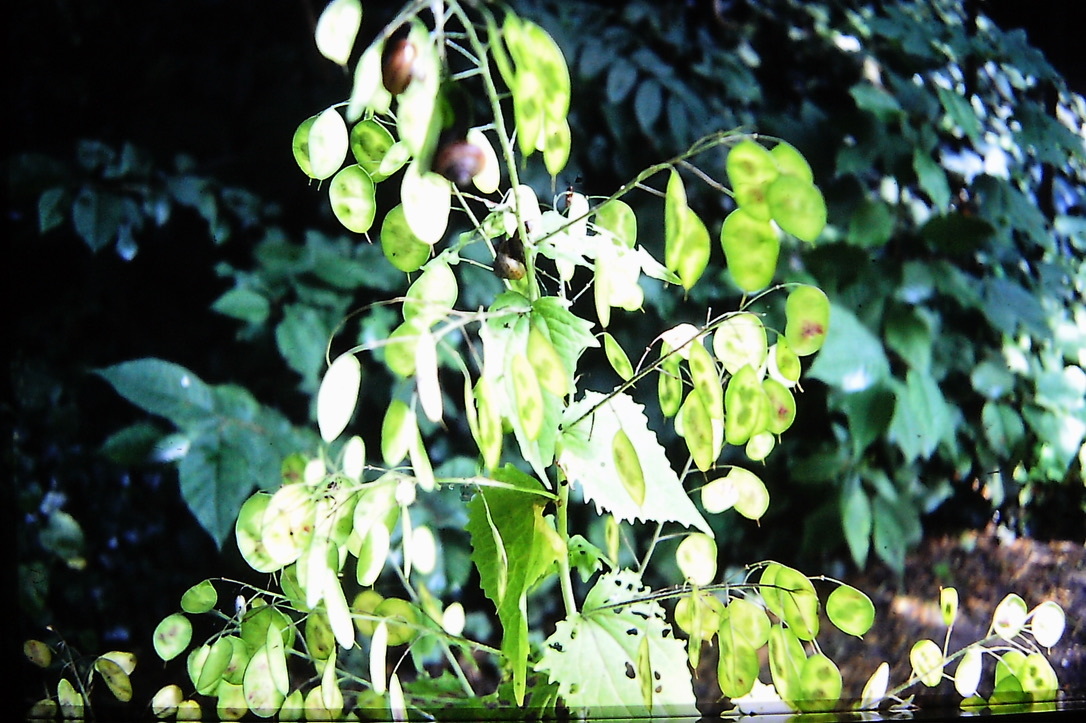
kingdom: Plantae
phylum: Tracheophyta
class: Magnoliopsida
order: Brassicales
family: Brassicaceae
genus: Lunaria
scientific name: Lunaria annua
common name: Honesty
